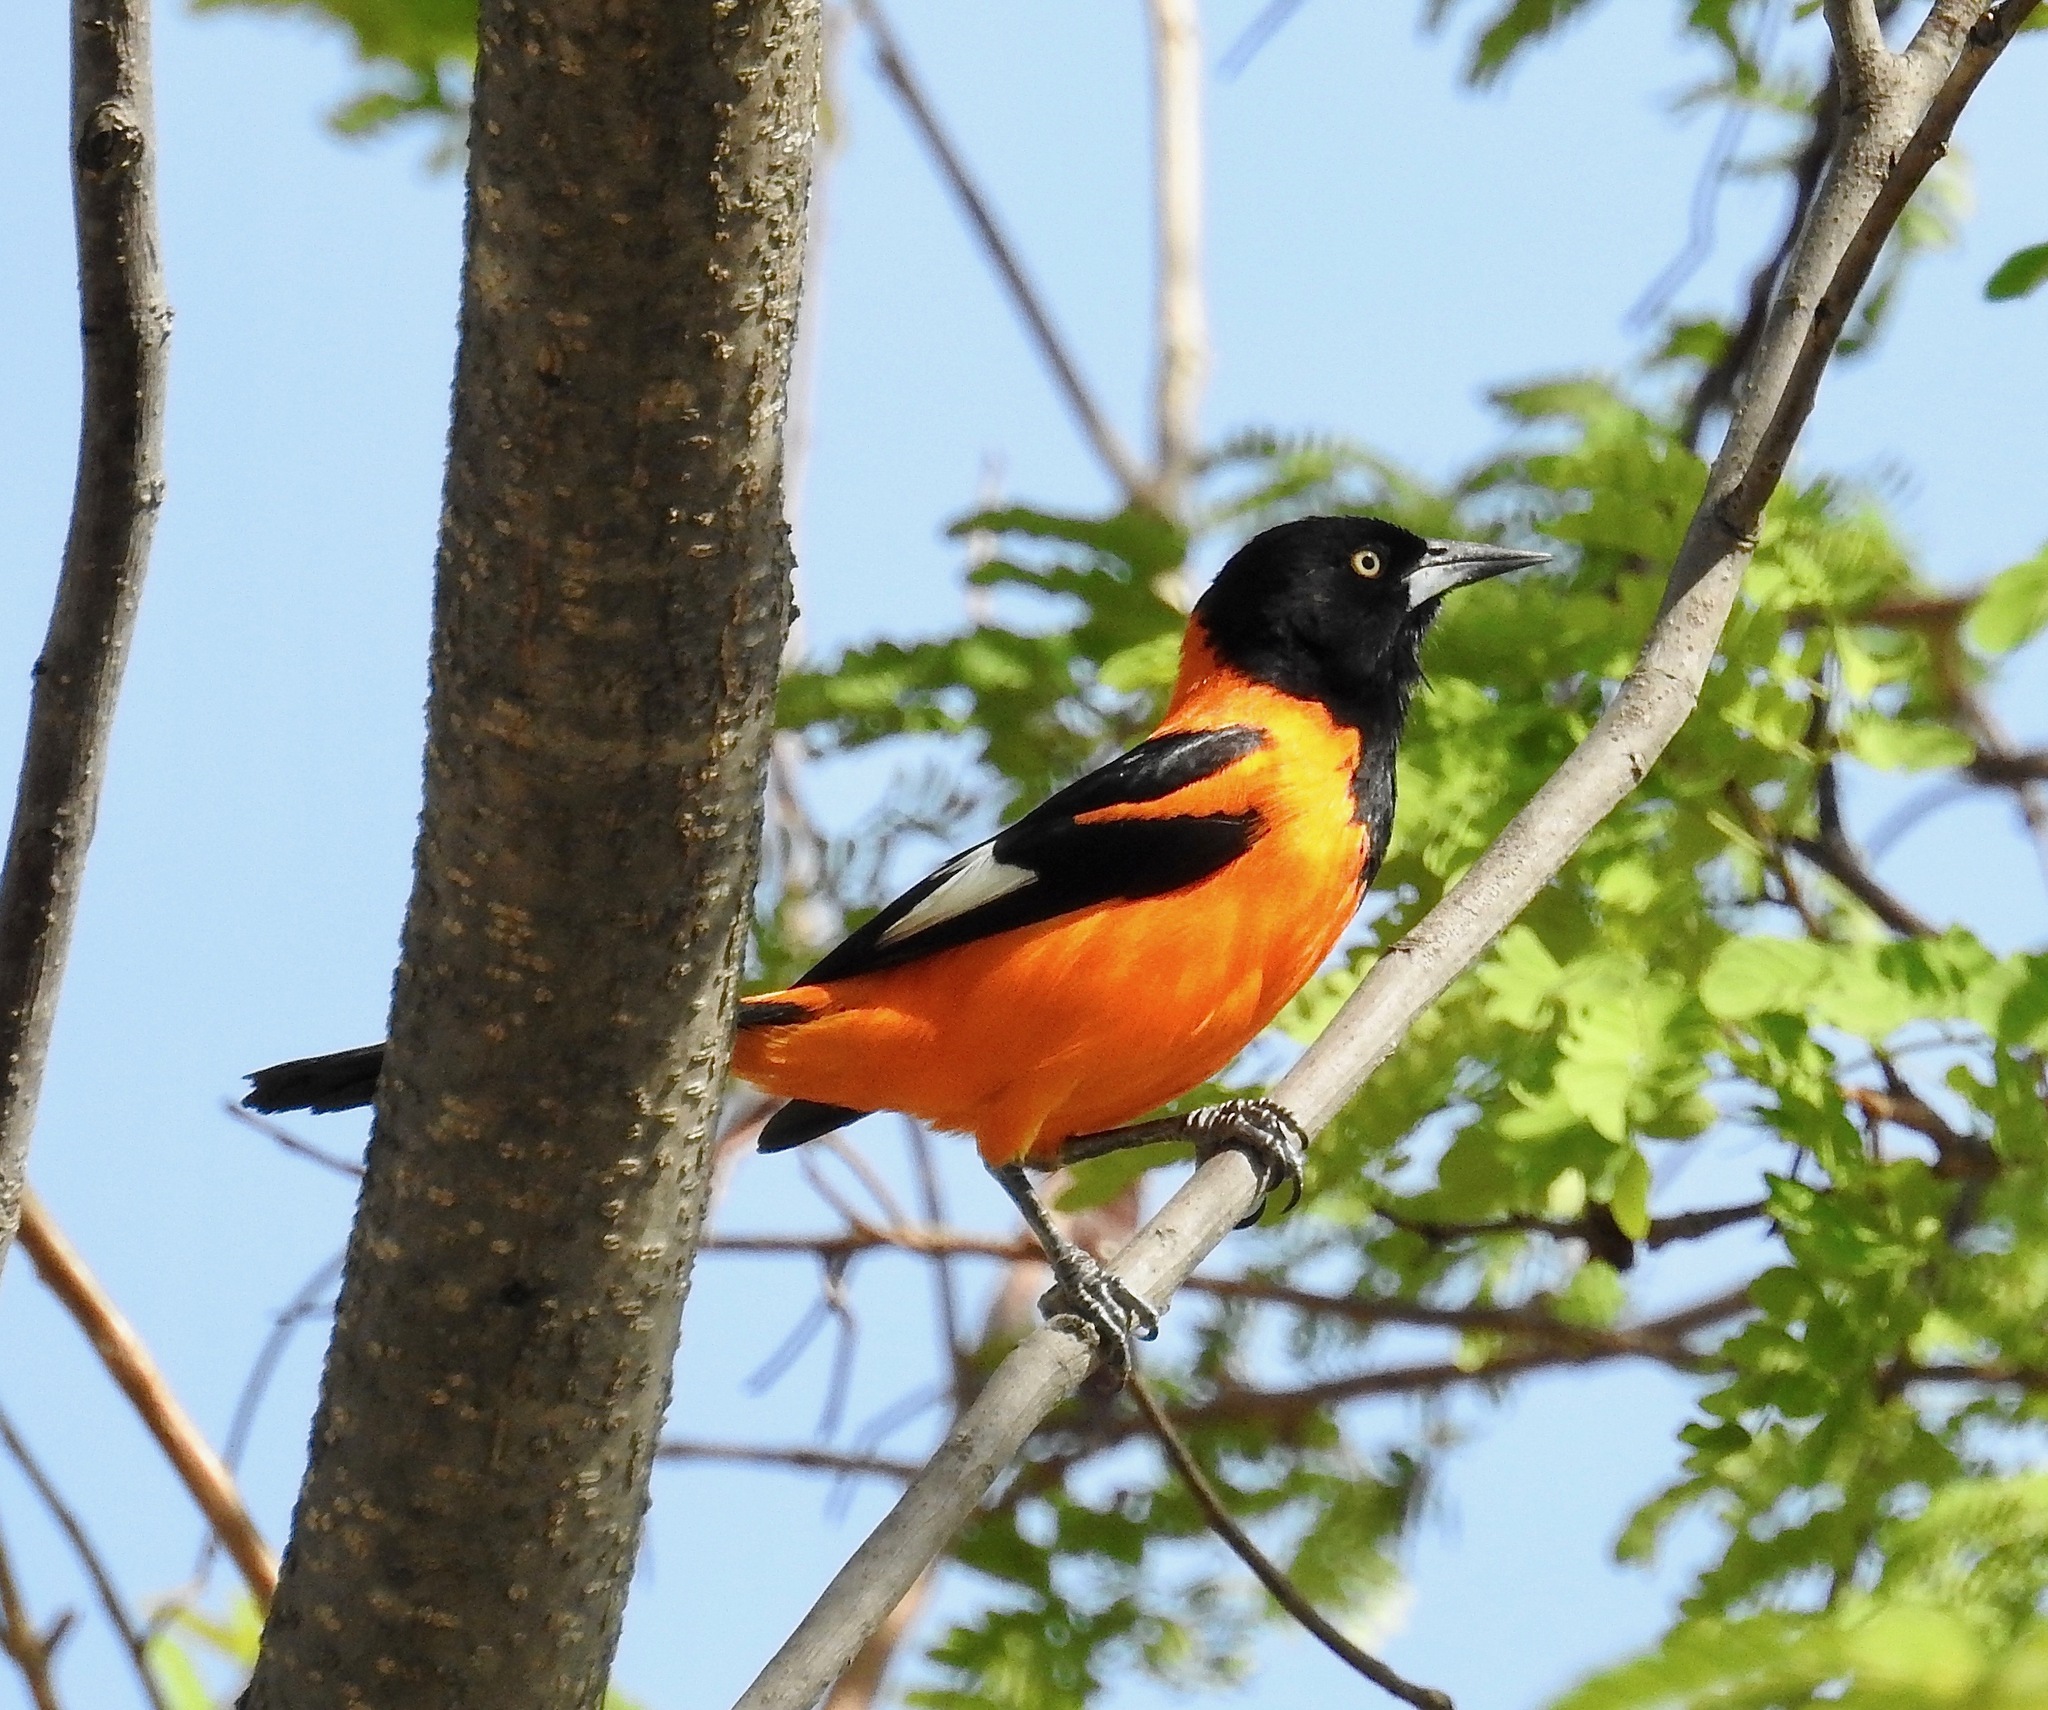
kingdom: Animalia
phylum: Chordata
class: Aves
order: Passeriformes
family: Icteridae
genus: Icterus
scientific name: Icterus icterus
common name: Venezuelan troupial
